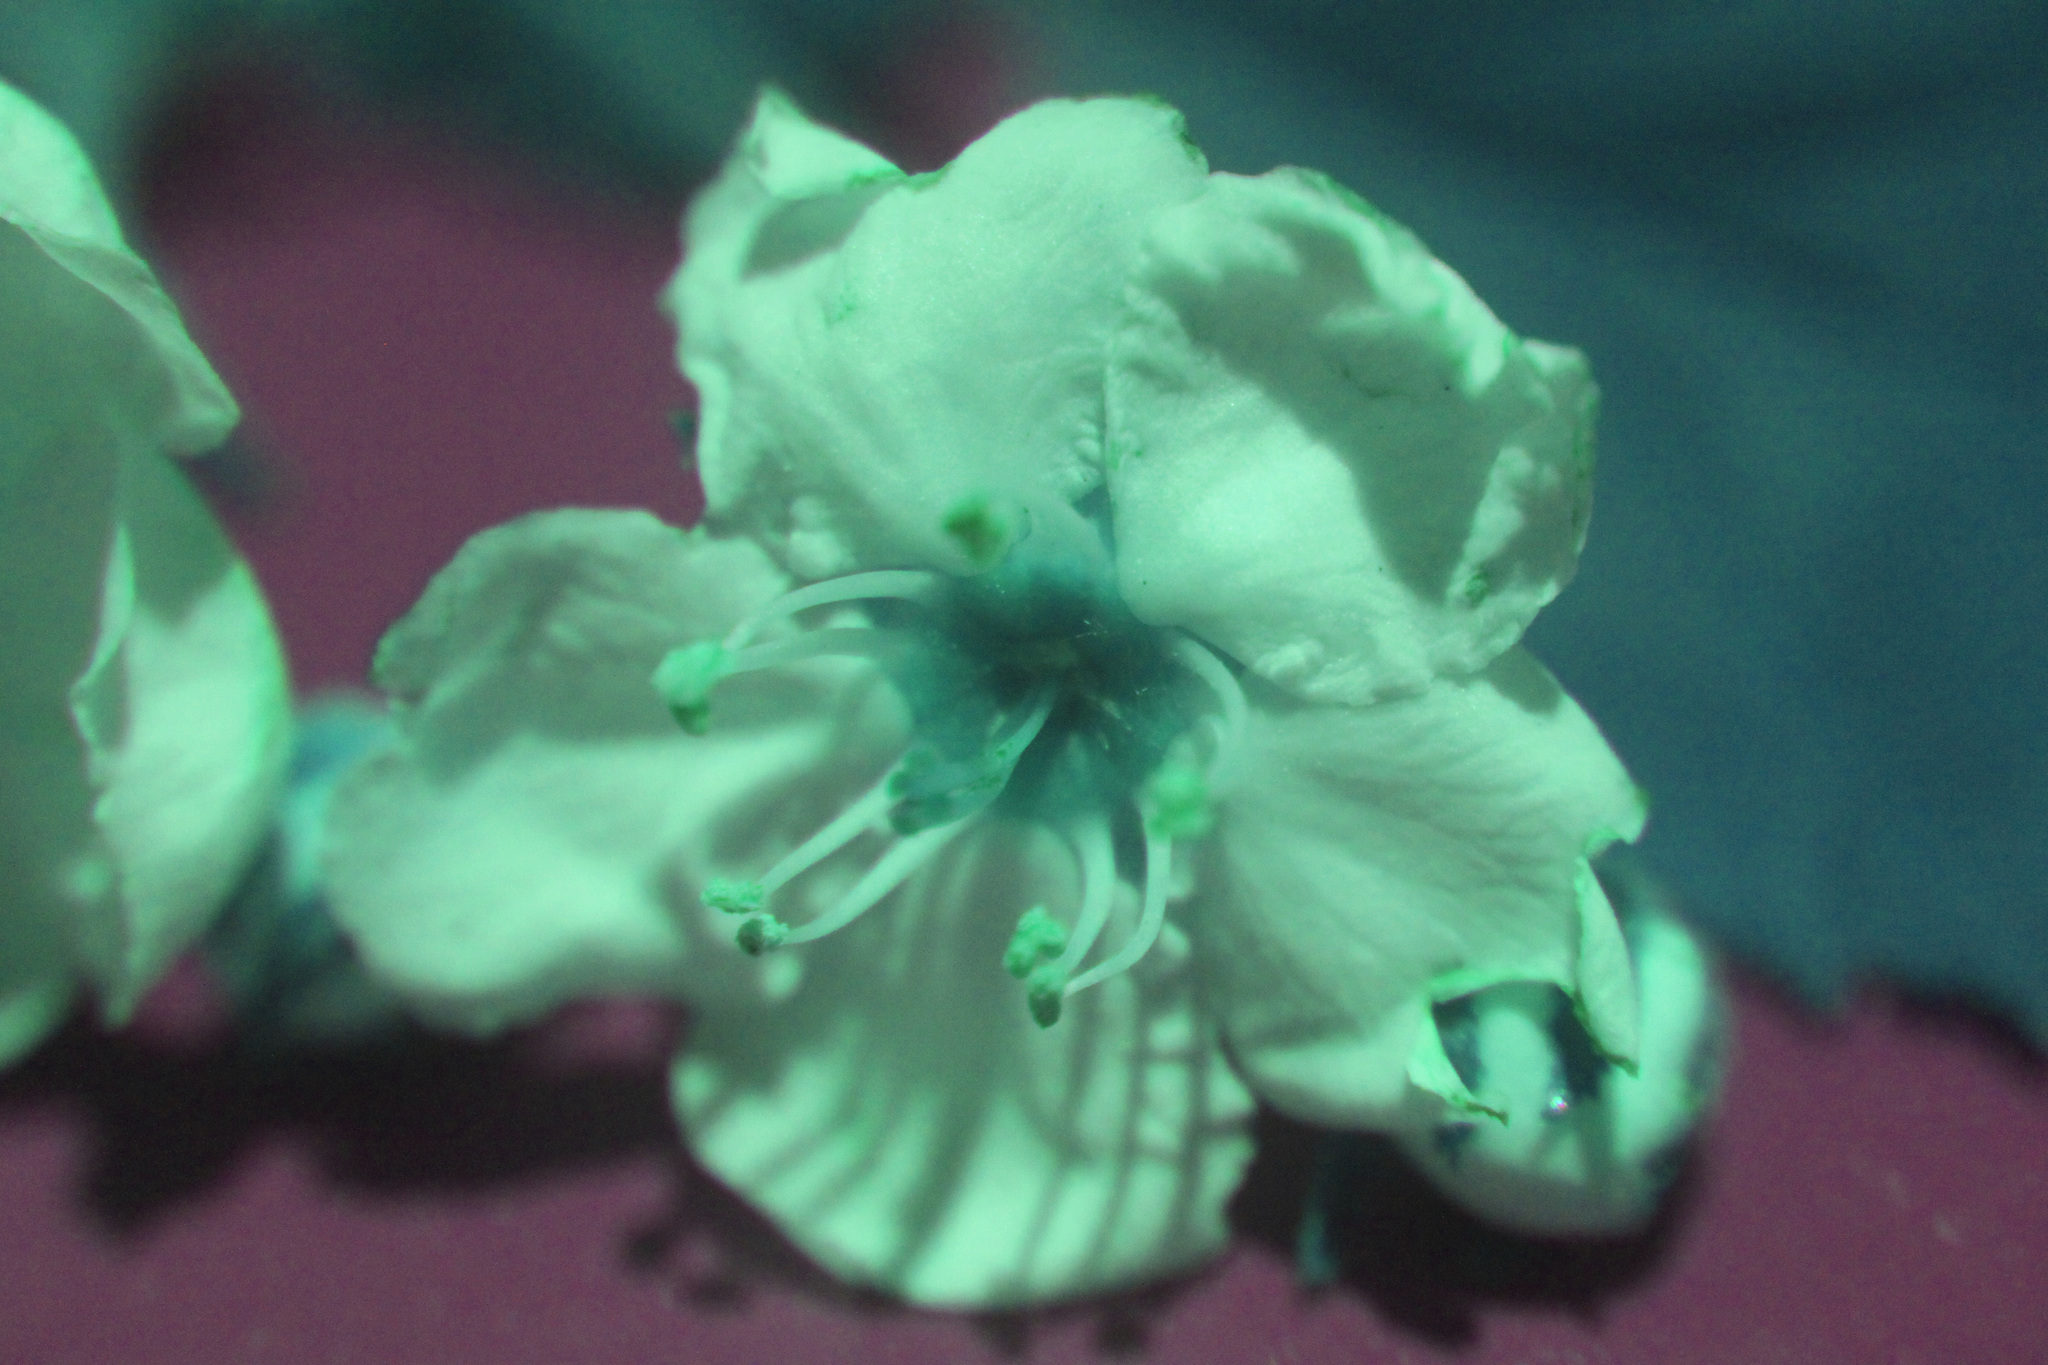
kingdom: Plantae
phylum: Tracheophyta
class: Magnoliopsida
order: Rosales
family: Rosaceae
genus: Crataegus
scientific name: Crataegus submollis
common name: Hairy cockspurthorn
